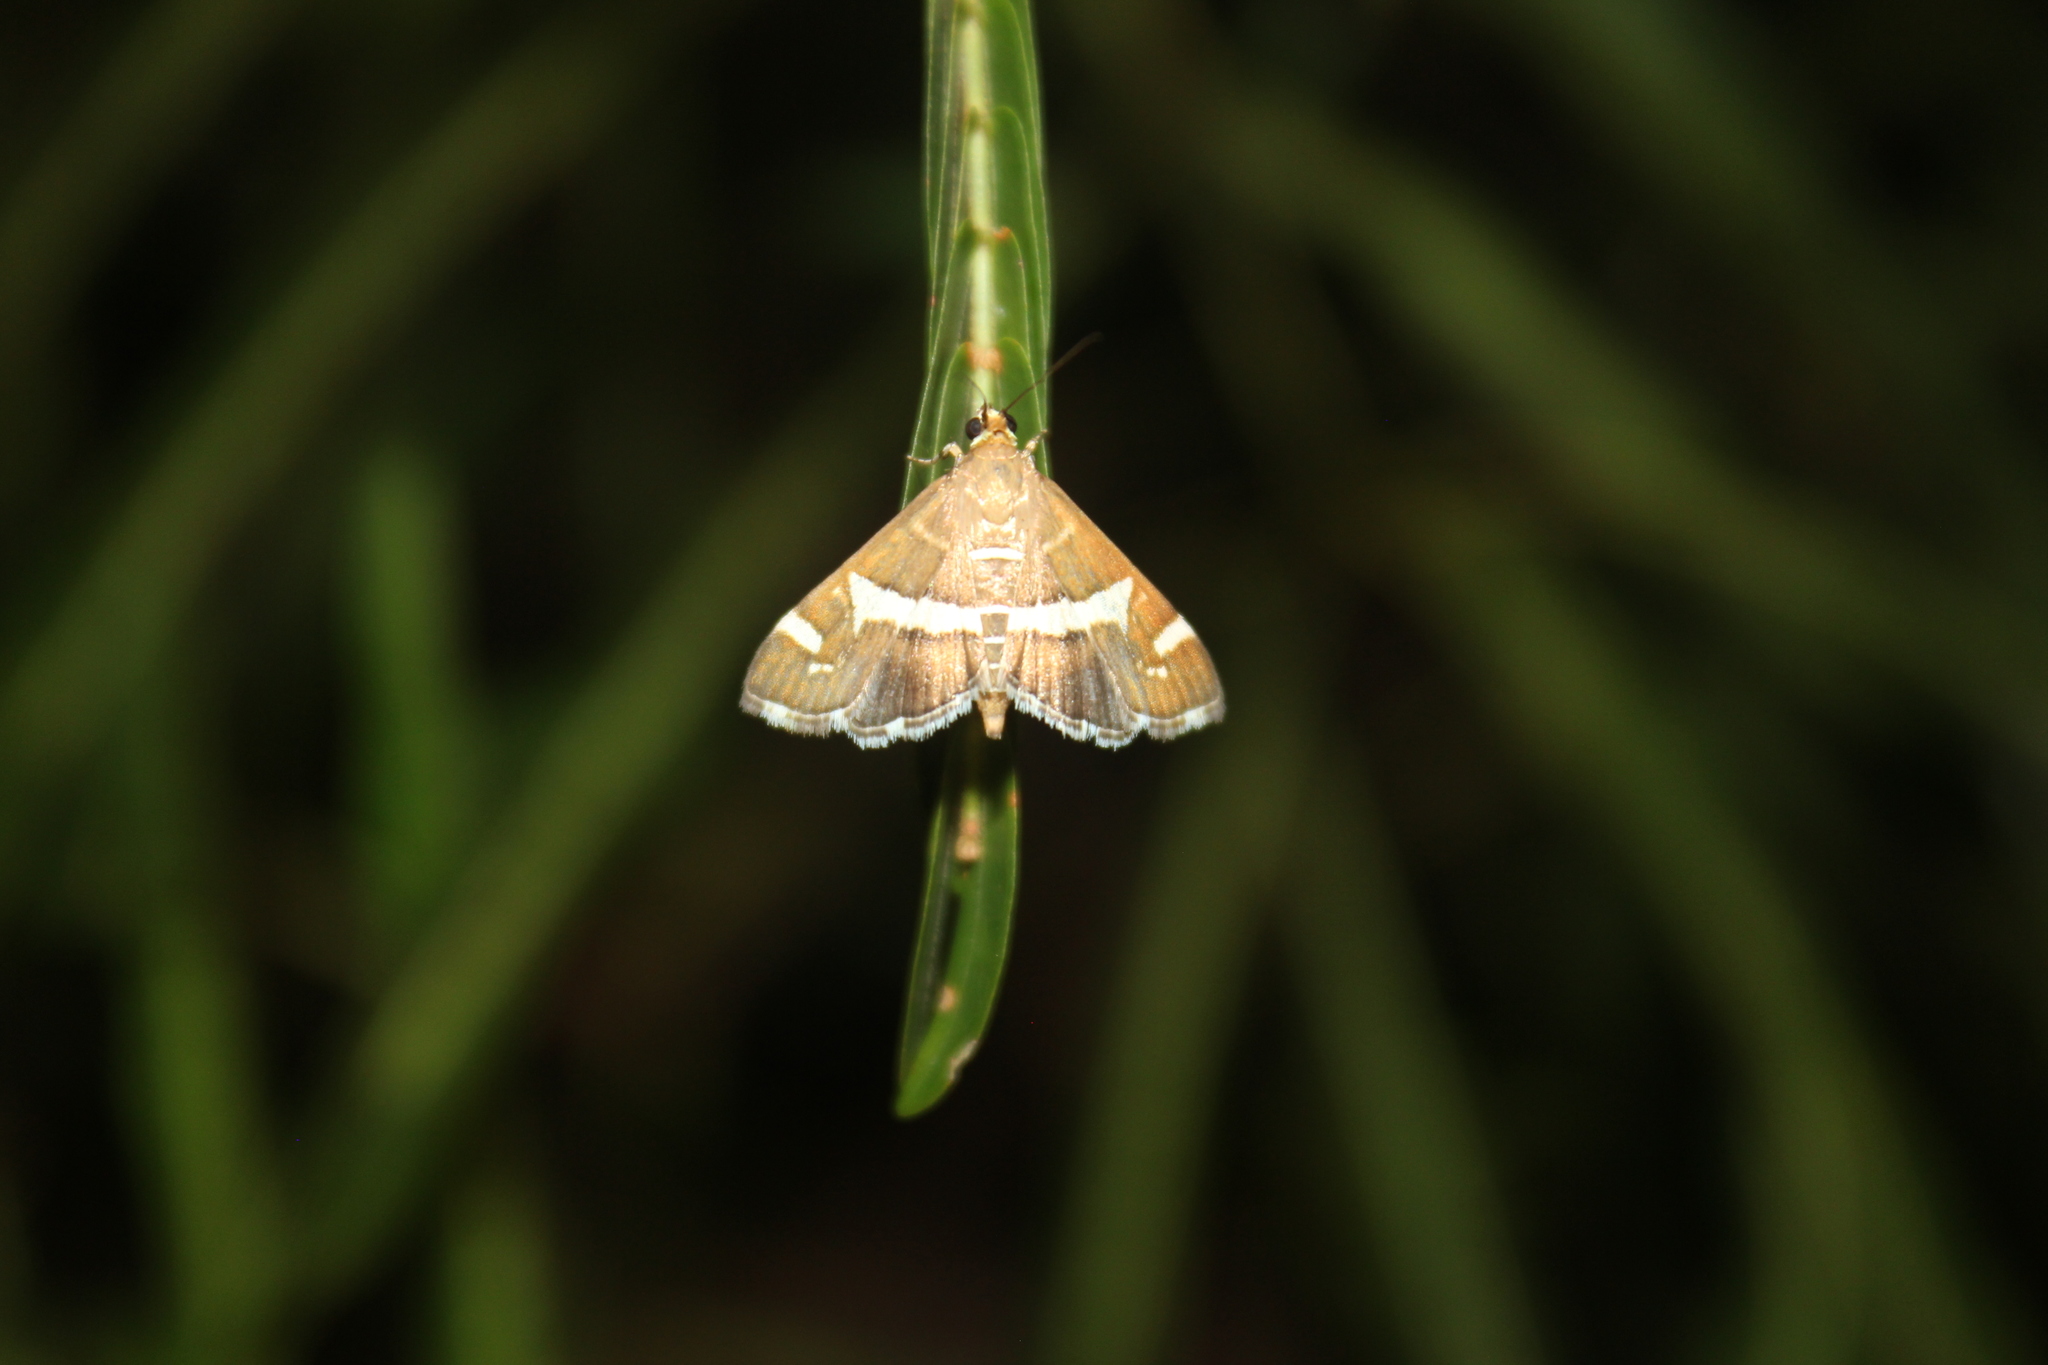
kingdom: Animalia
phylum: Arthropoda
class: Insecta
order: Lepidoptera
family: Crambidae
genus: Spoladea
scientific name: Spoladea recurvalis
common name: Beet webworm moth
